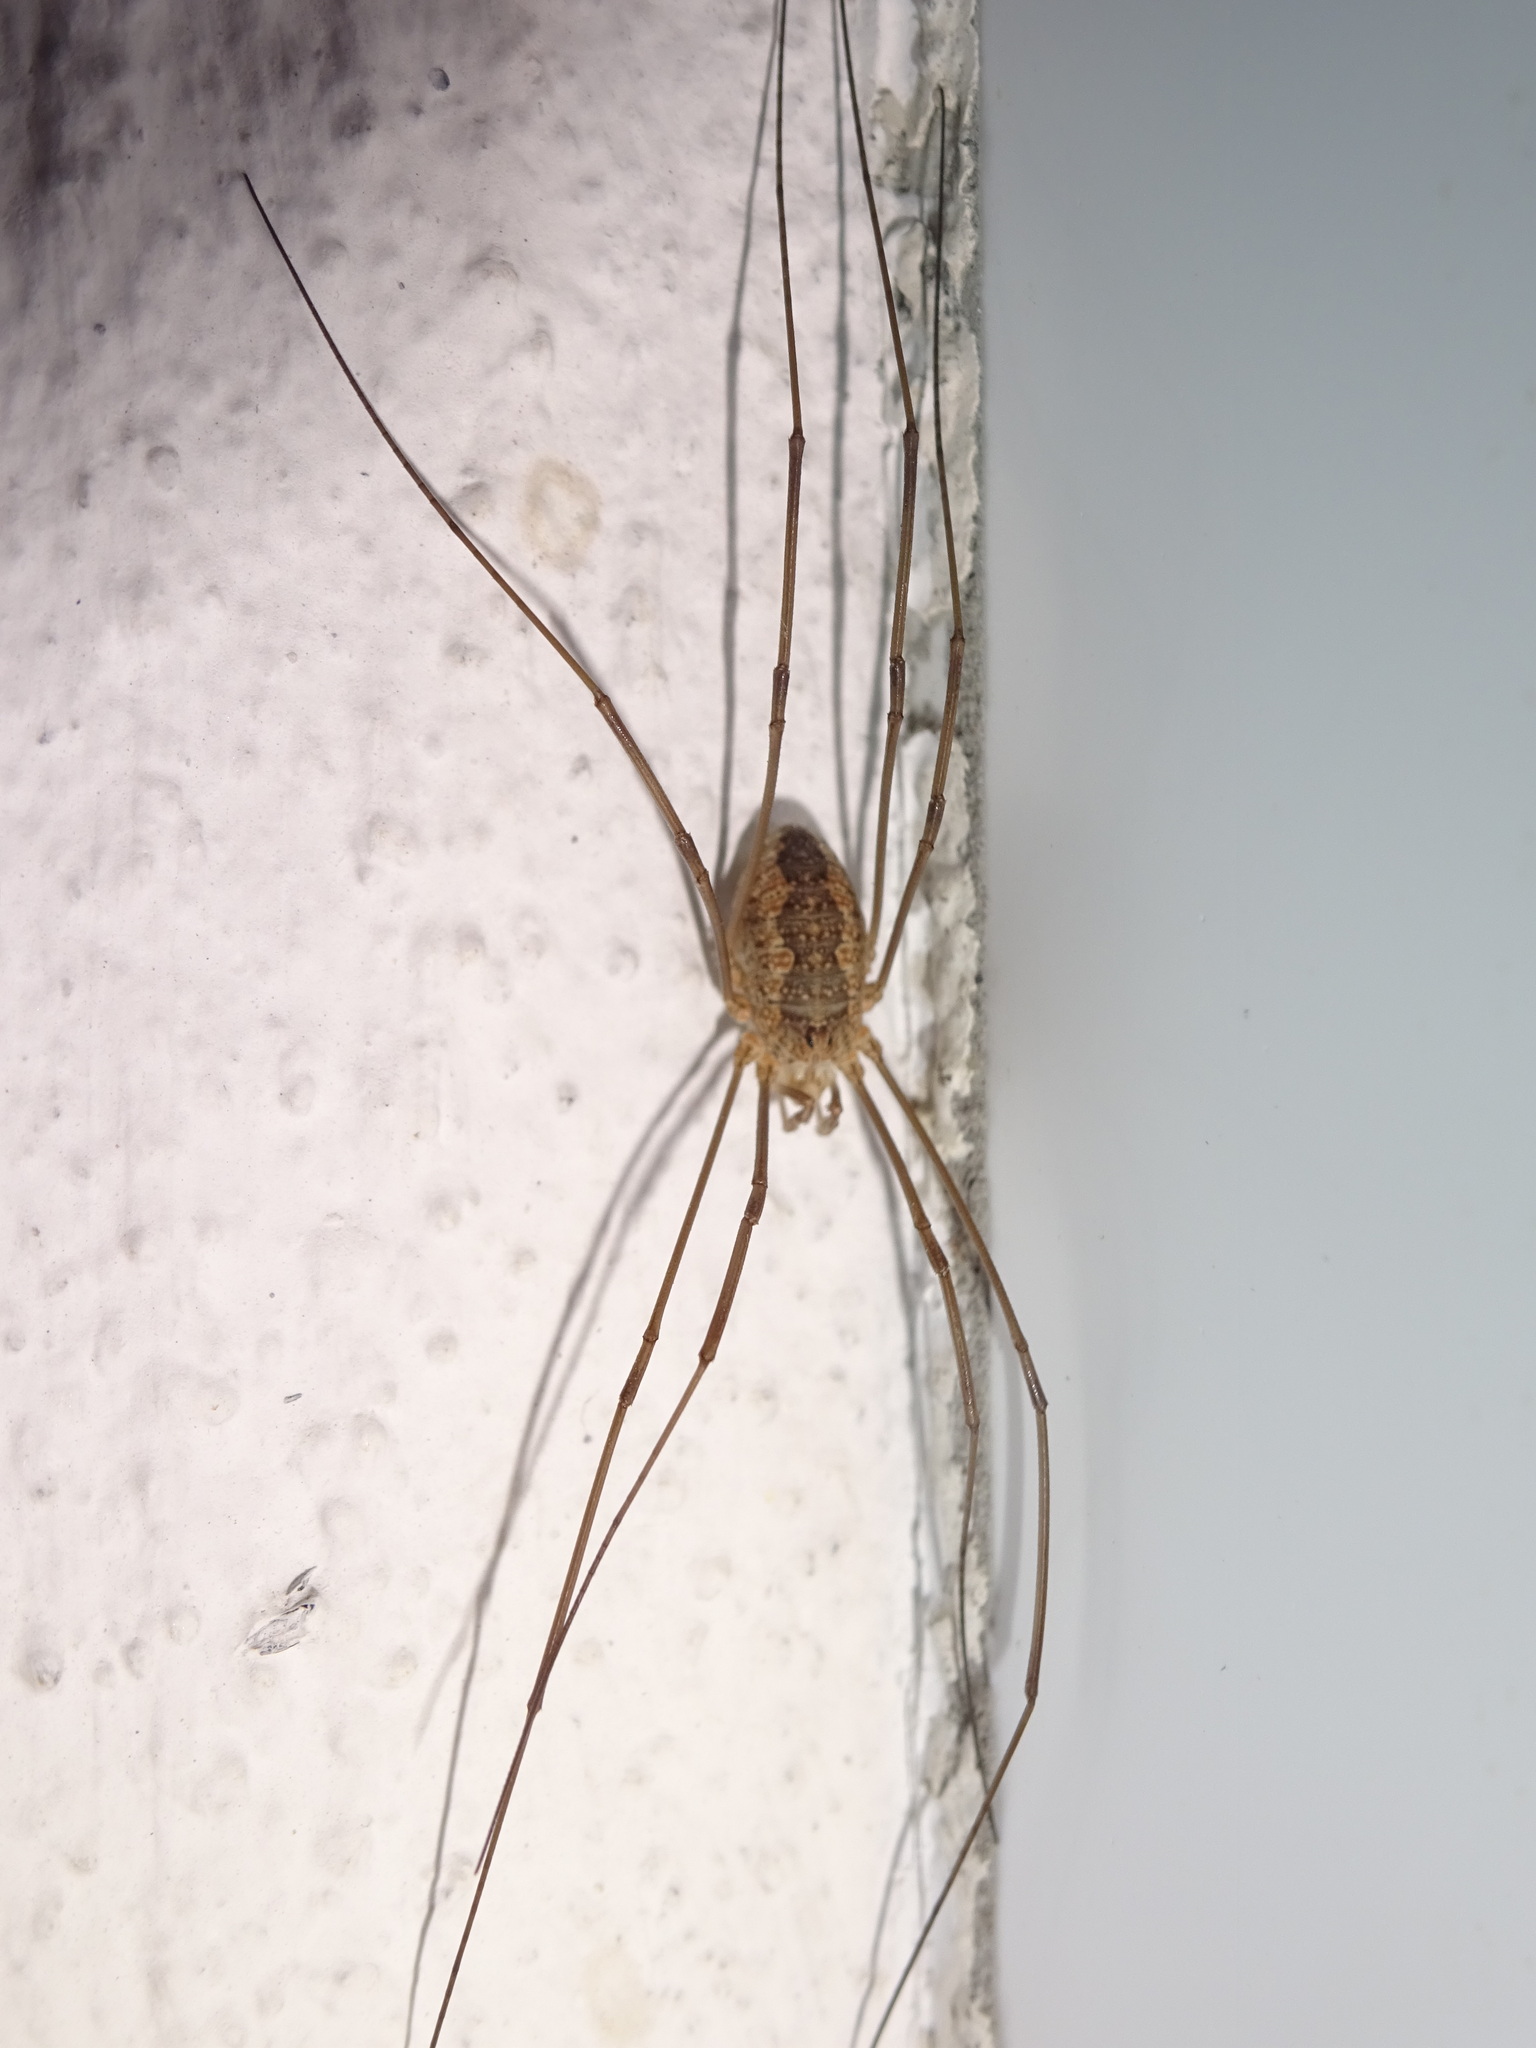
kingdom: Animalia
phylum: Arthropoda
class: Arachnida
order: Opiliones
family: Phalangiidae
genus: Phalangium
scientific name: Phalangium opilio
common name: Daddy longleg
